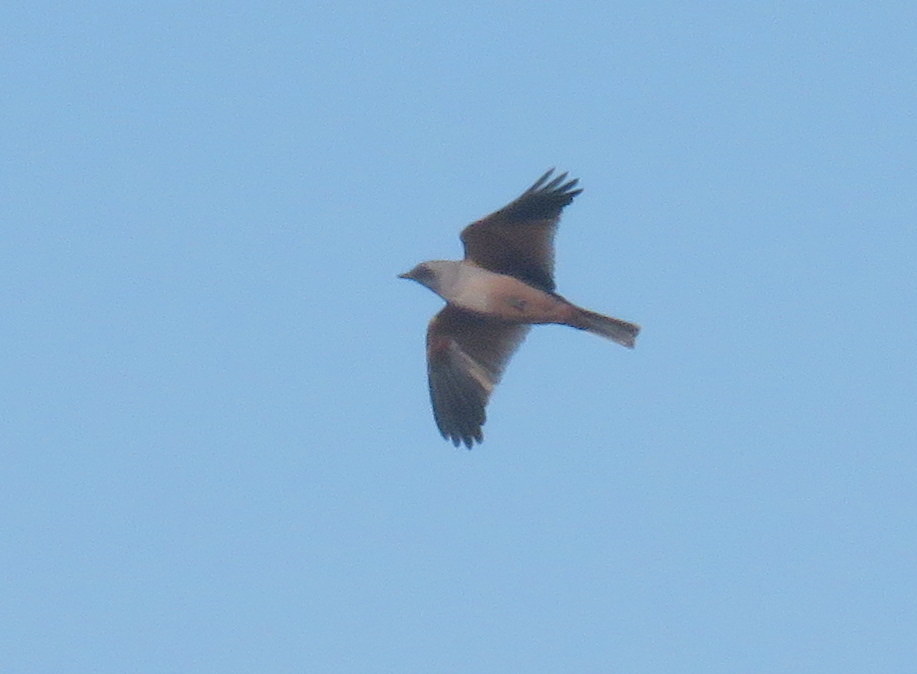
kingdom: Animalia
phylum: Chordata
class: Aves
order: Passeriformes
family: Tyrannidae
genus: Neoxolmis
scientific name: Neoxolmis rufiventris
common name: Chocolate-vented tyrant
